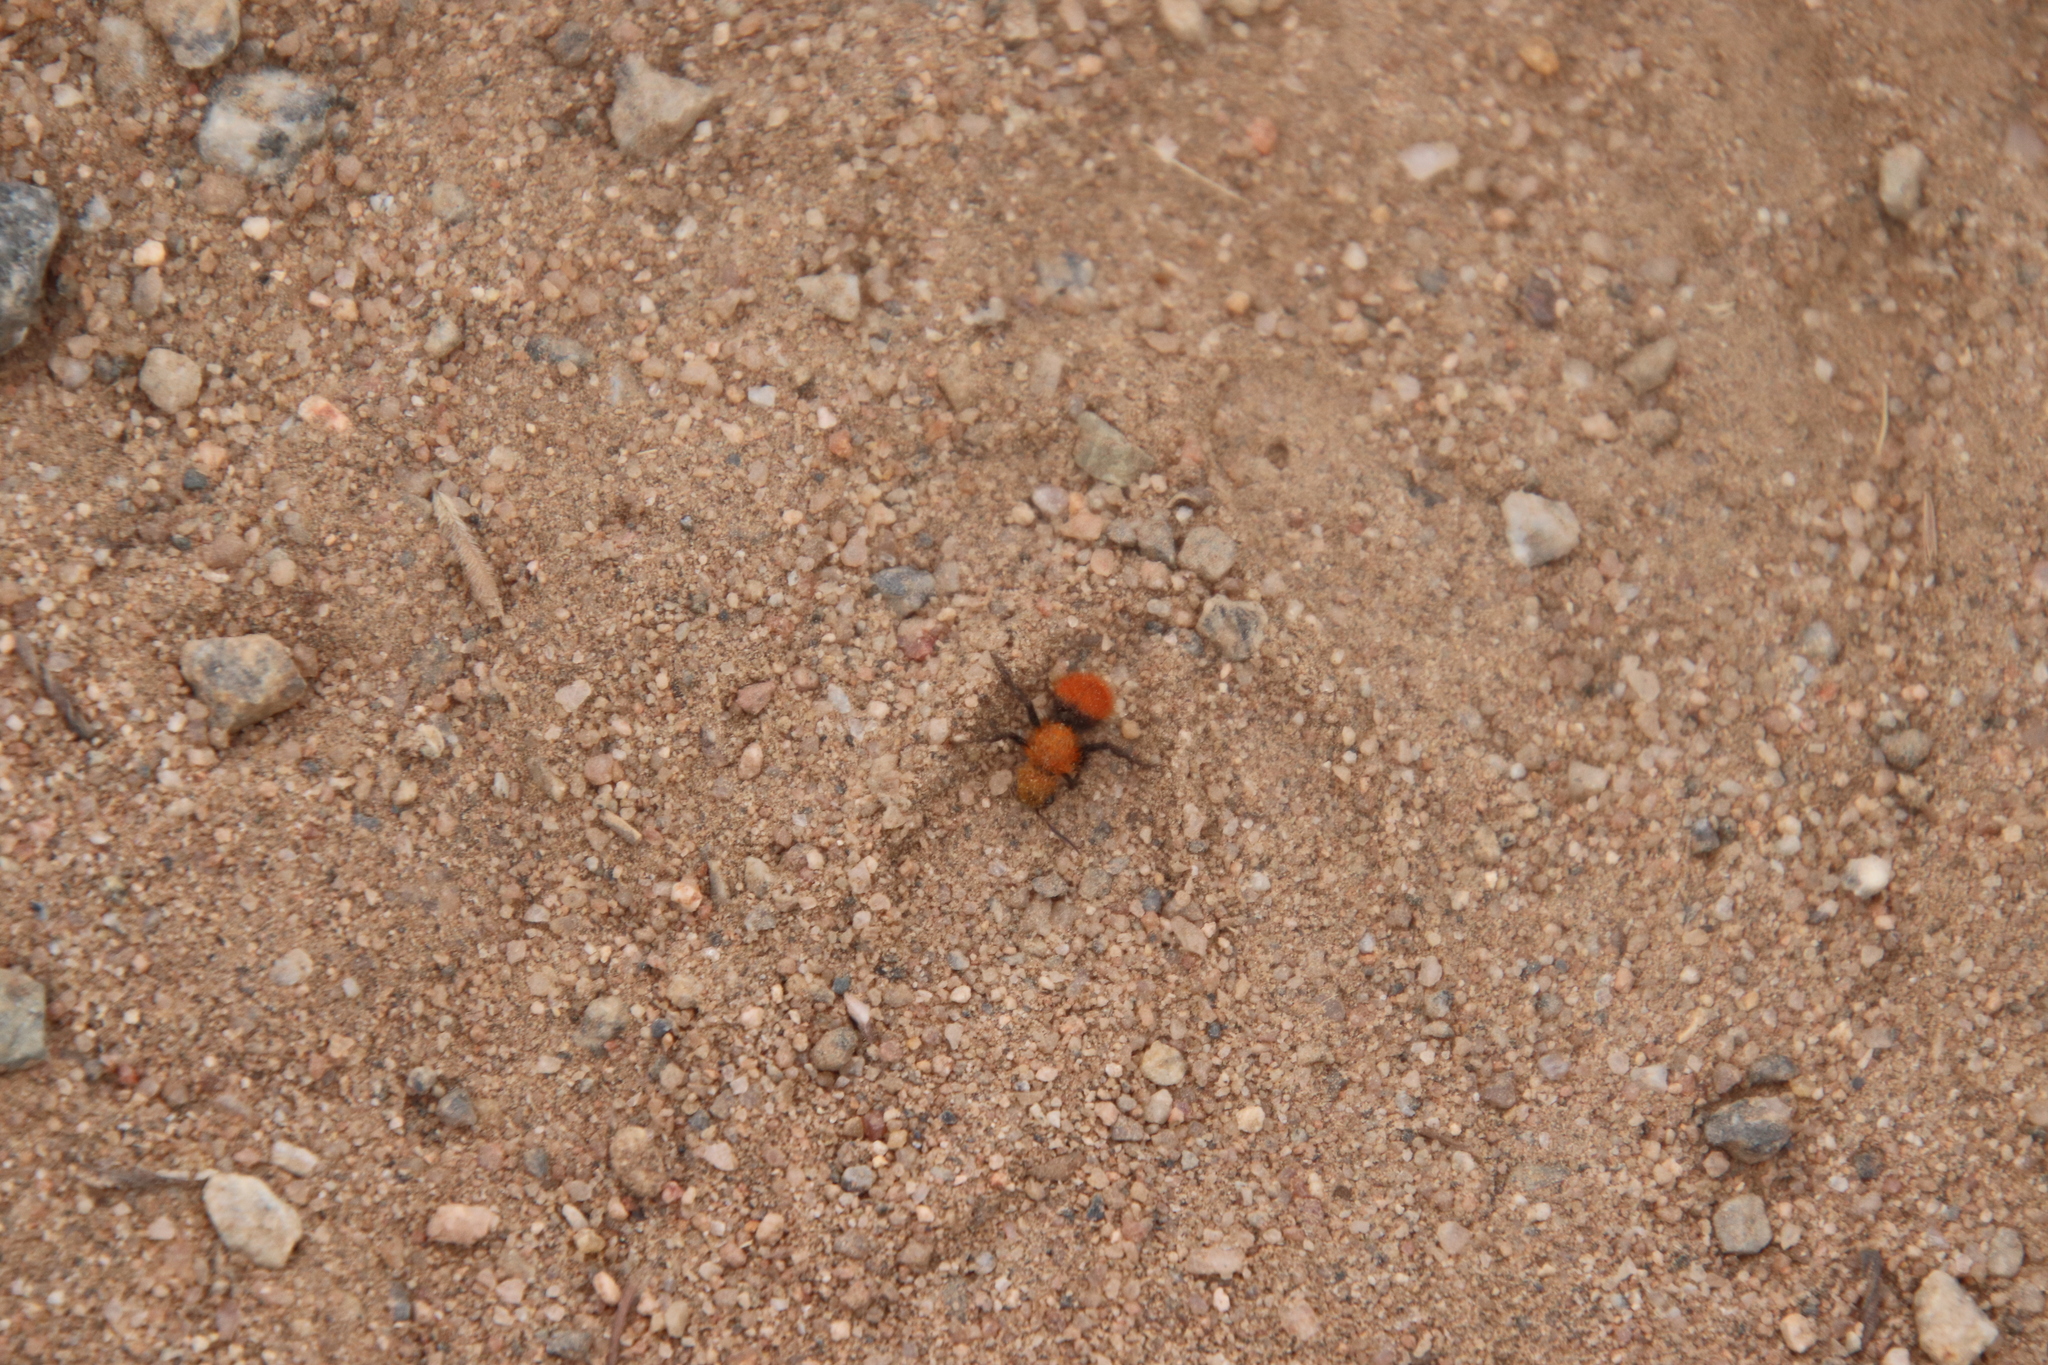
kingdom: Animalia
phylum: Arthropoda
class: Insecta
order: Hymenoptera
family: Mutillidae
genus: Dasymutilla
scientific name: Dasymutilla
